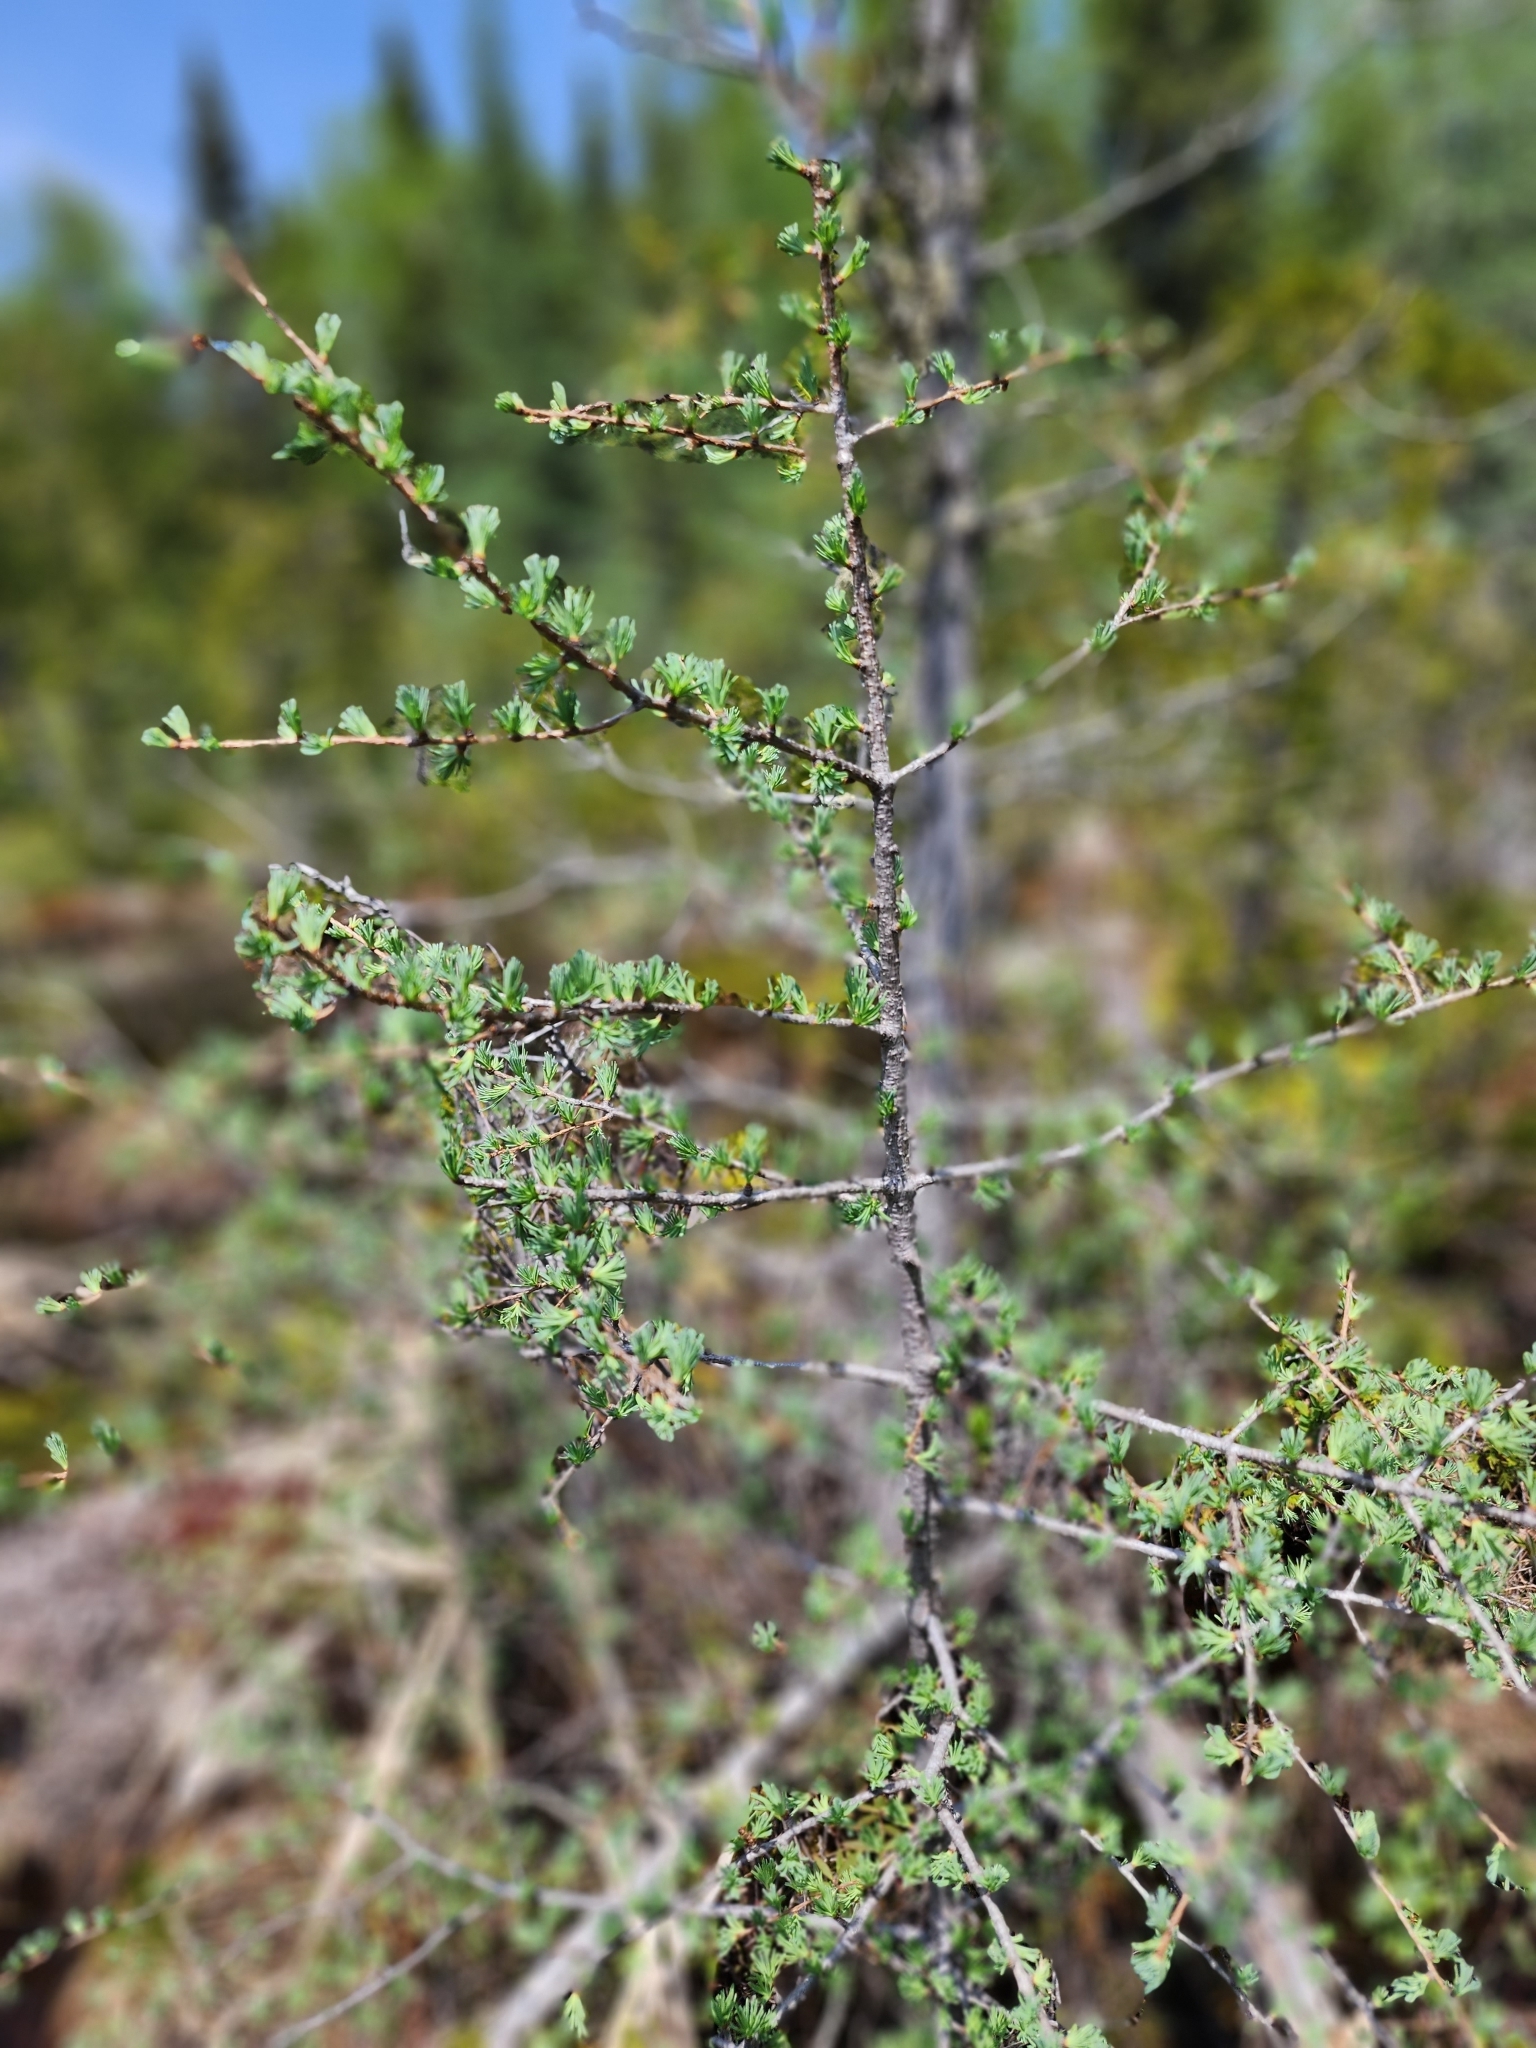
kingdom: Plantae
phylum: Tracheophyta
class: Pinopsida
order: Pinales
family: Pinaceae
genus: Larix
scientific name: Larix laricina
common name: American larch
